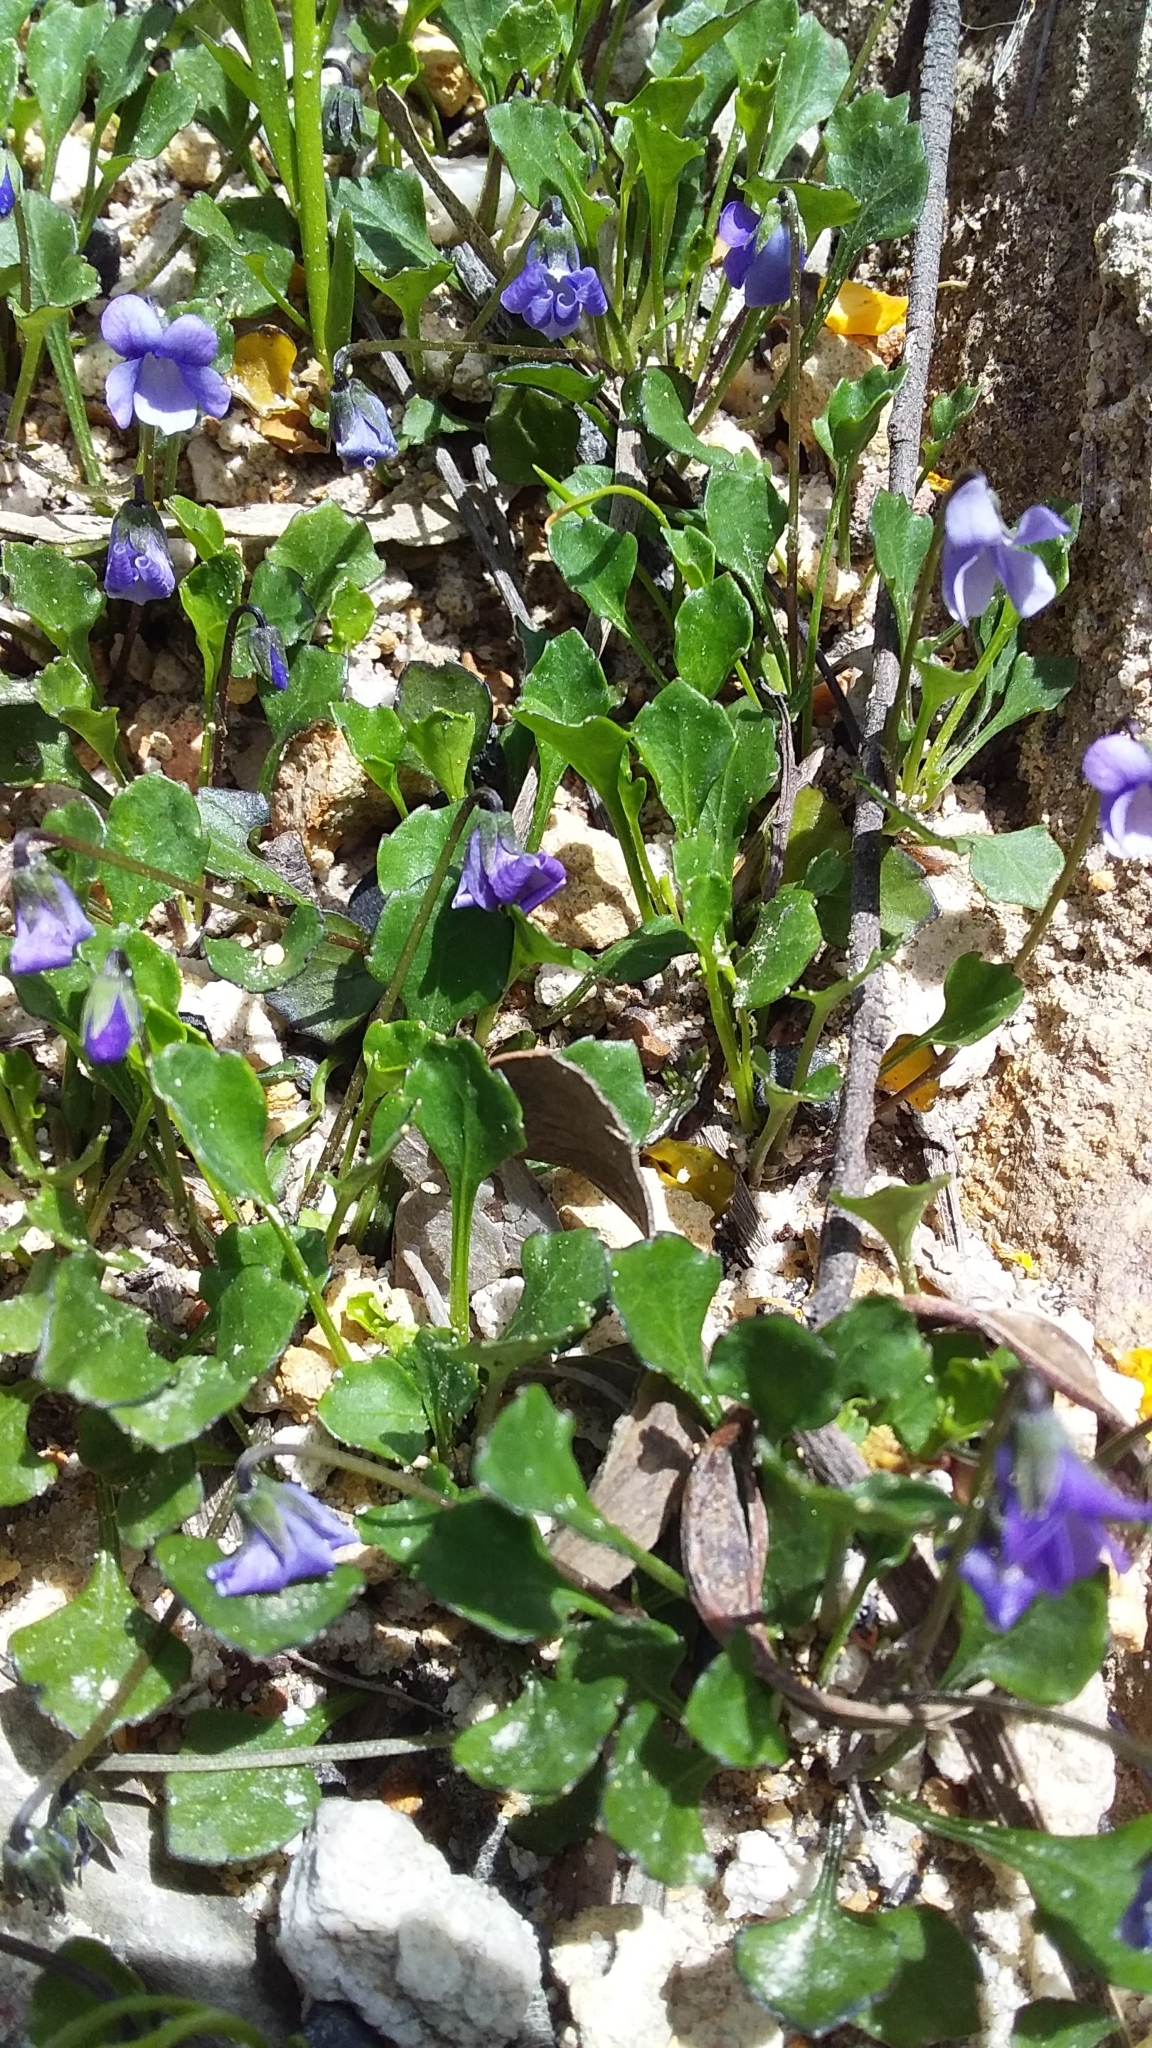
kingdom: Plantae
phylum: Tracheophyta
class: Magnoliopsida
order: Malpighiales
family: Violaceae
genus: Viola
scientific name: Viola sieberiana
